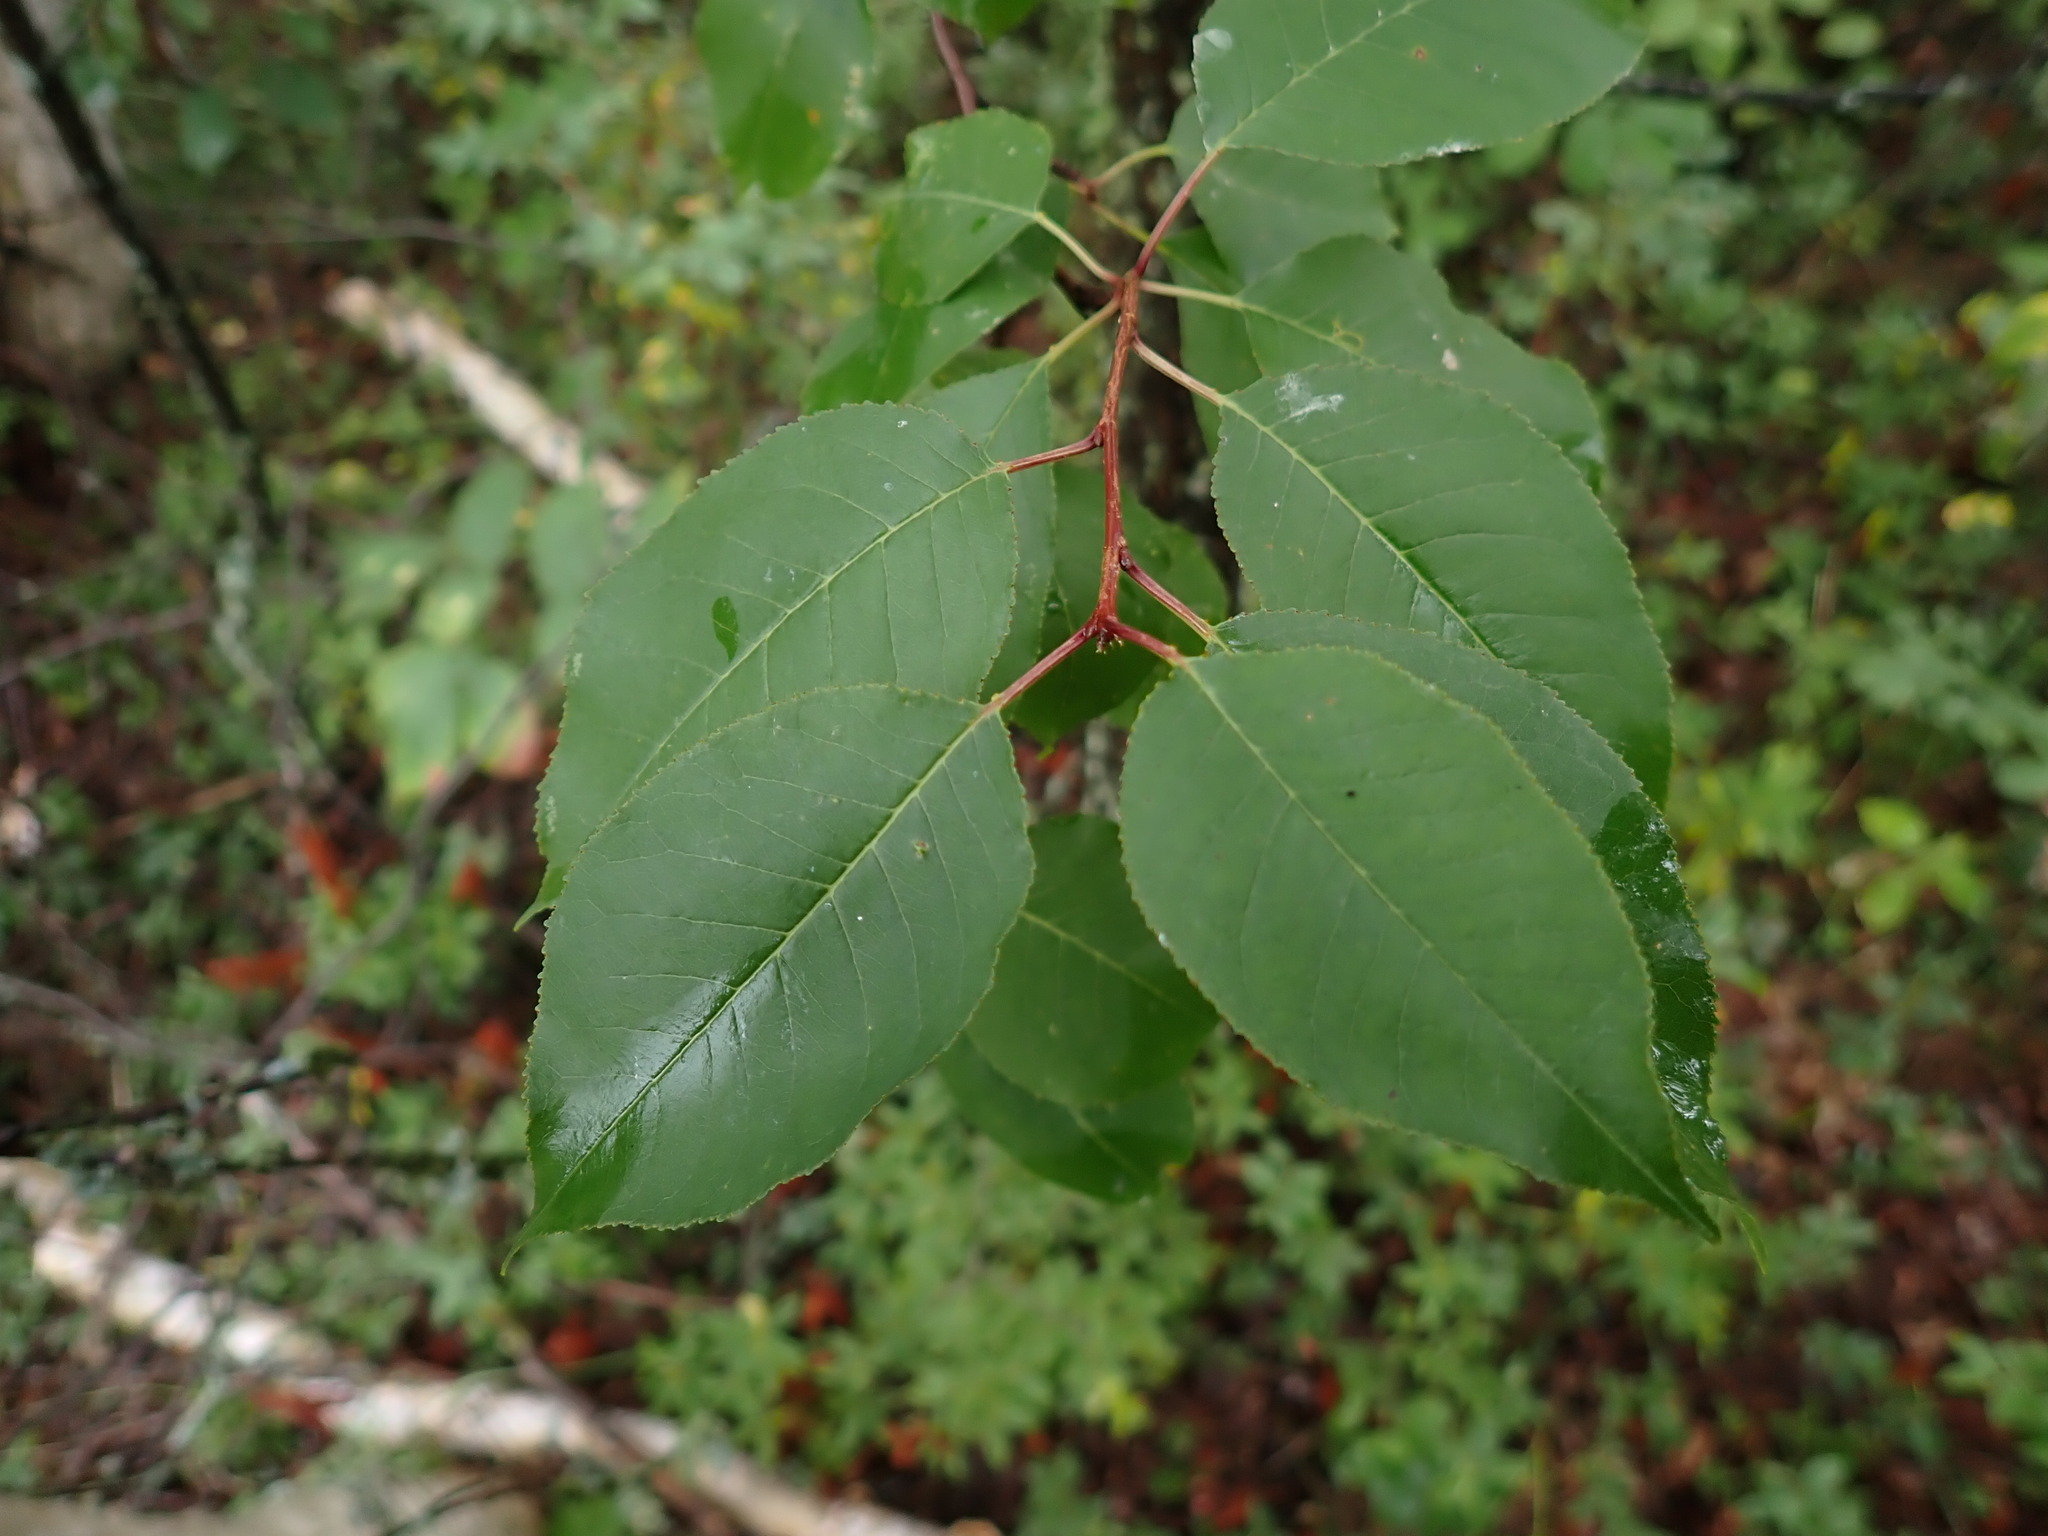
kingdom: Plantae
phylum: Tracheophyta
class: Magnoliopsida
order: Rosales
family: Rosaceae
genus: Prunus
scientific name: Prunus pensylvanica
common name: Pin cherry
